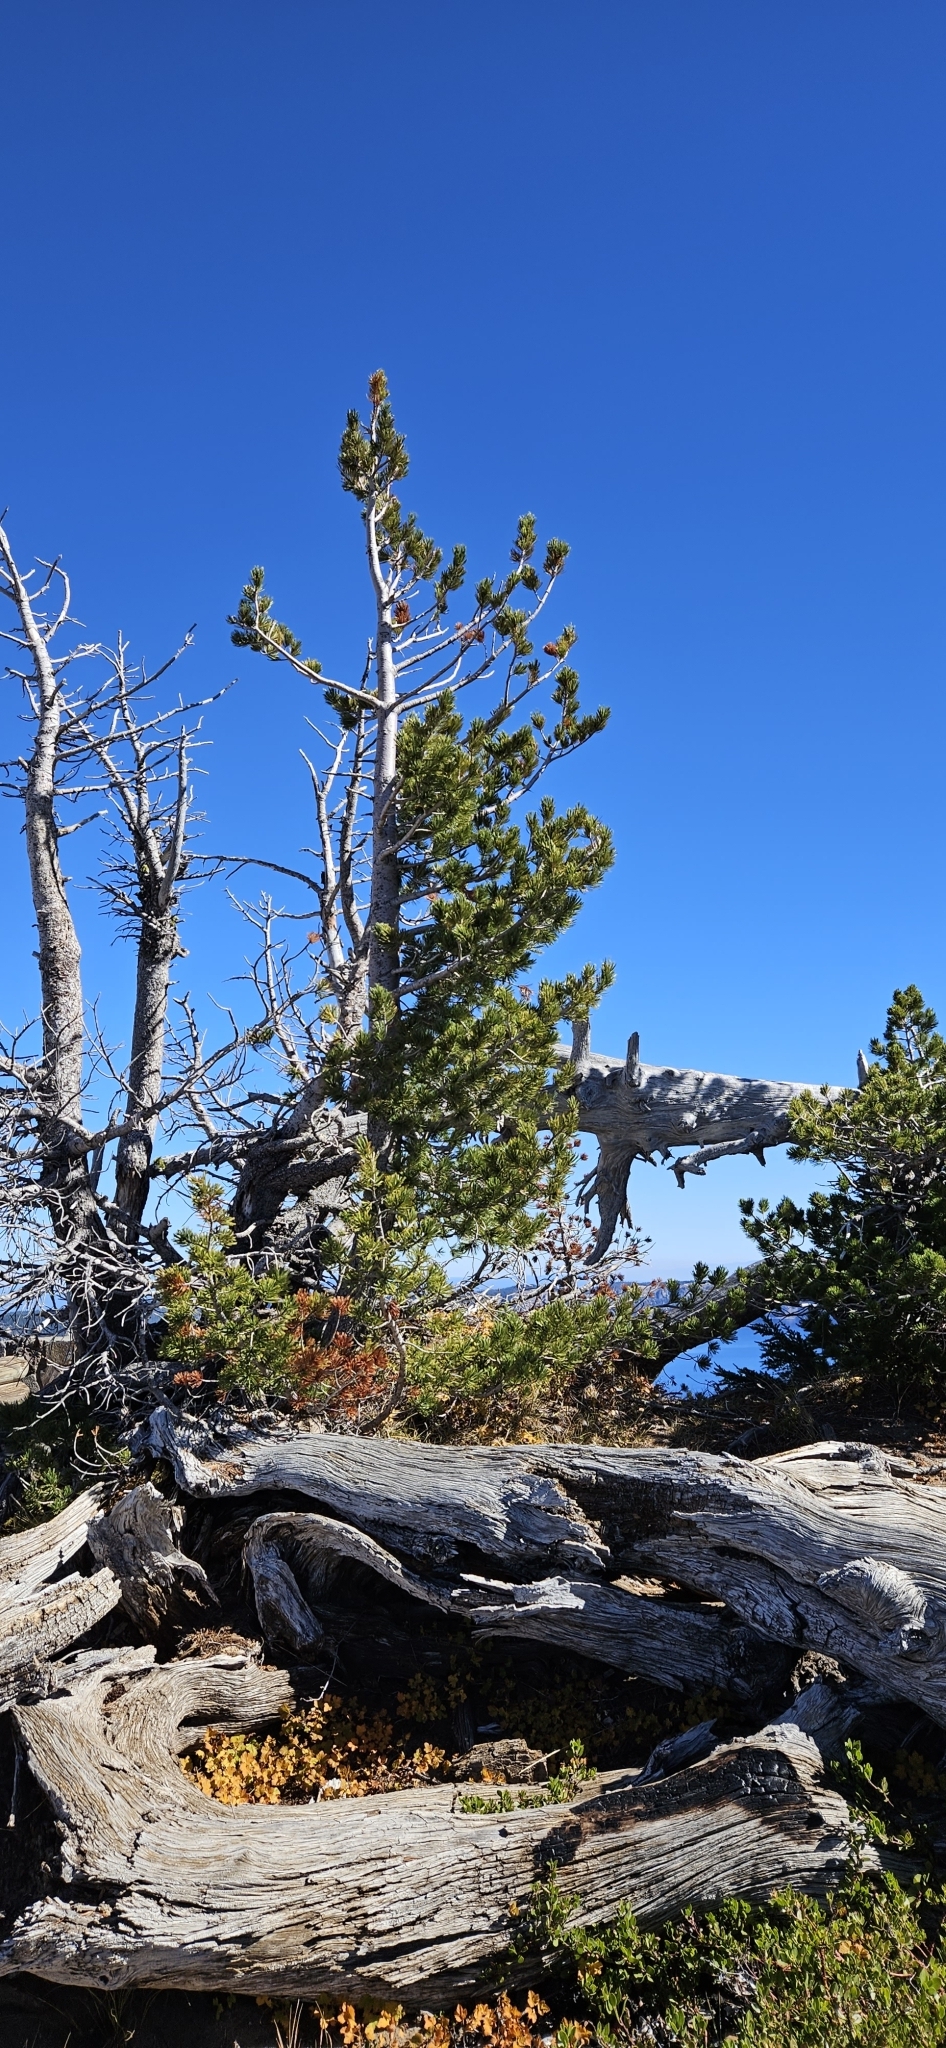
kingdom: Plantae
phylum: Tracheophyta
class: Pinopsida
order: Pinales
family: Pinaceae
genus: Pinus
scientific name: Pinus albicaulis
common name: Whitebark pine
